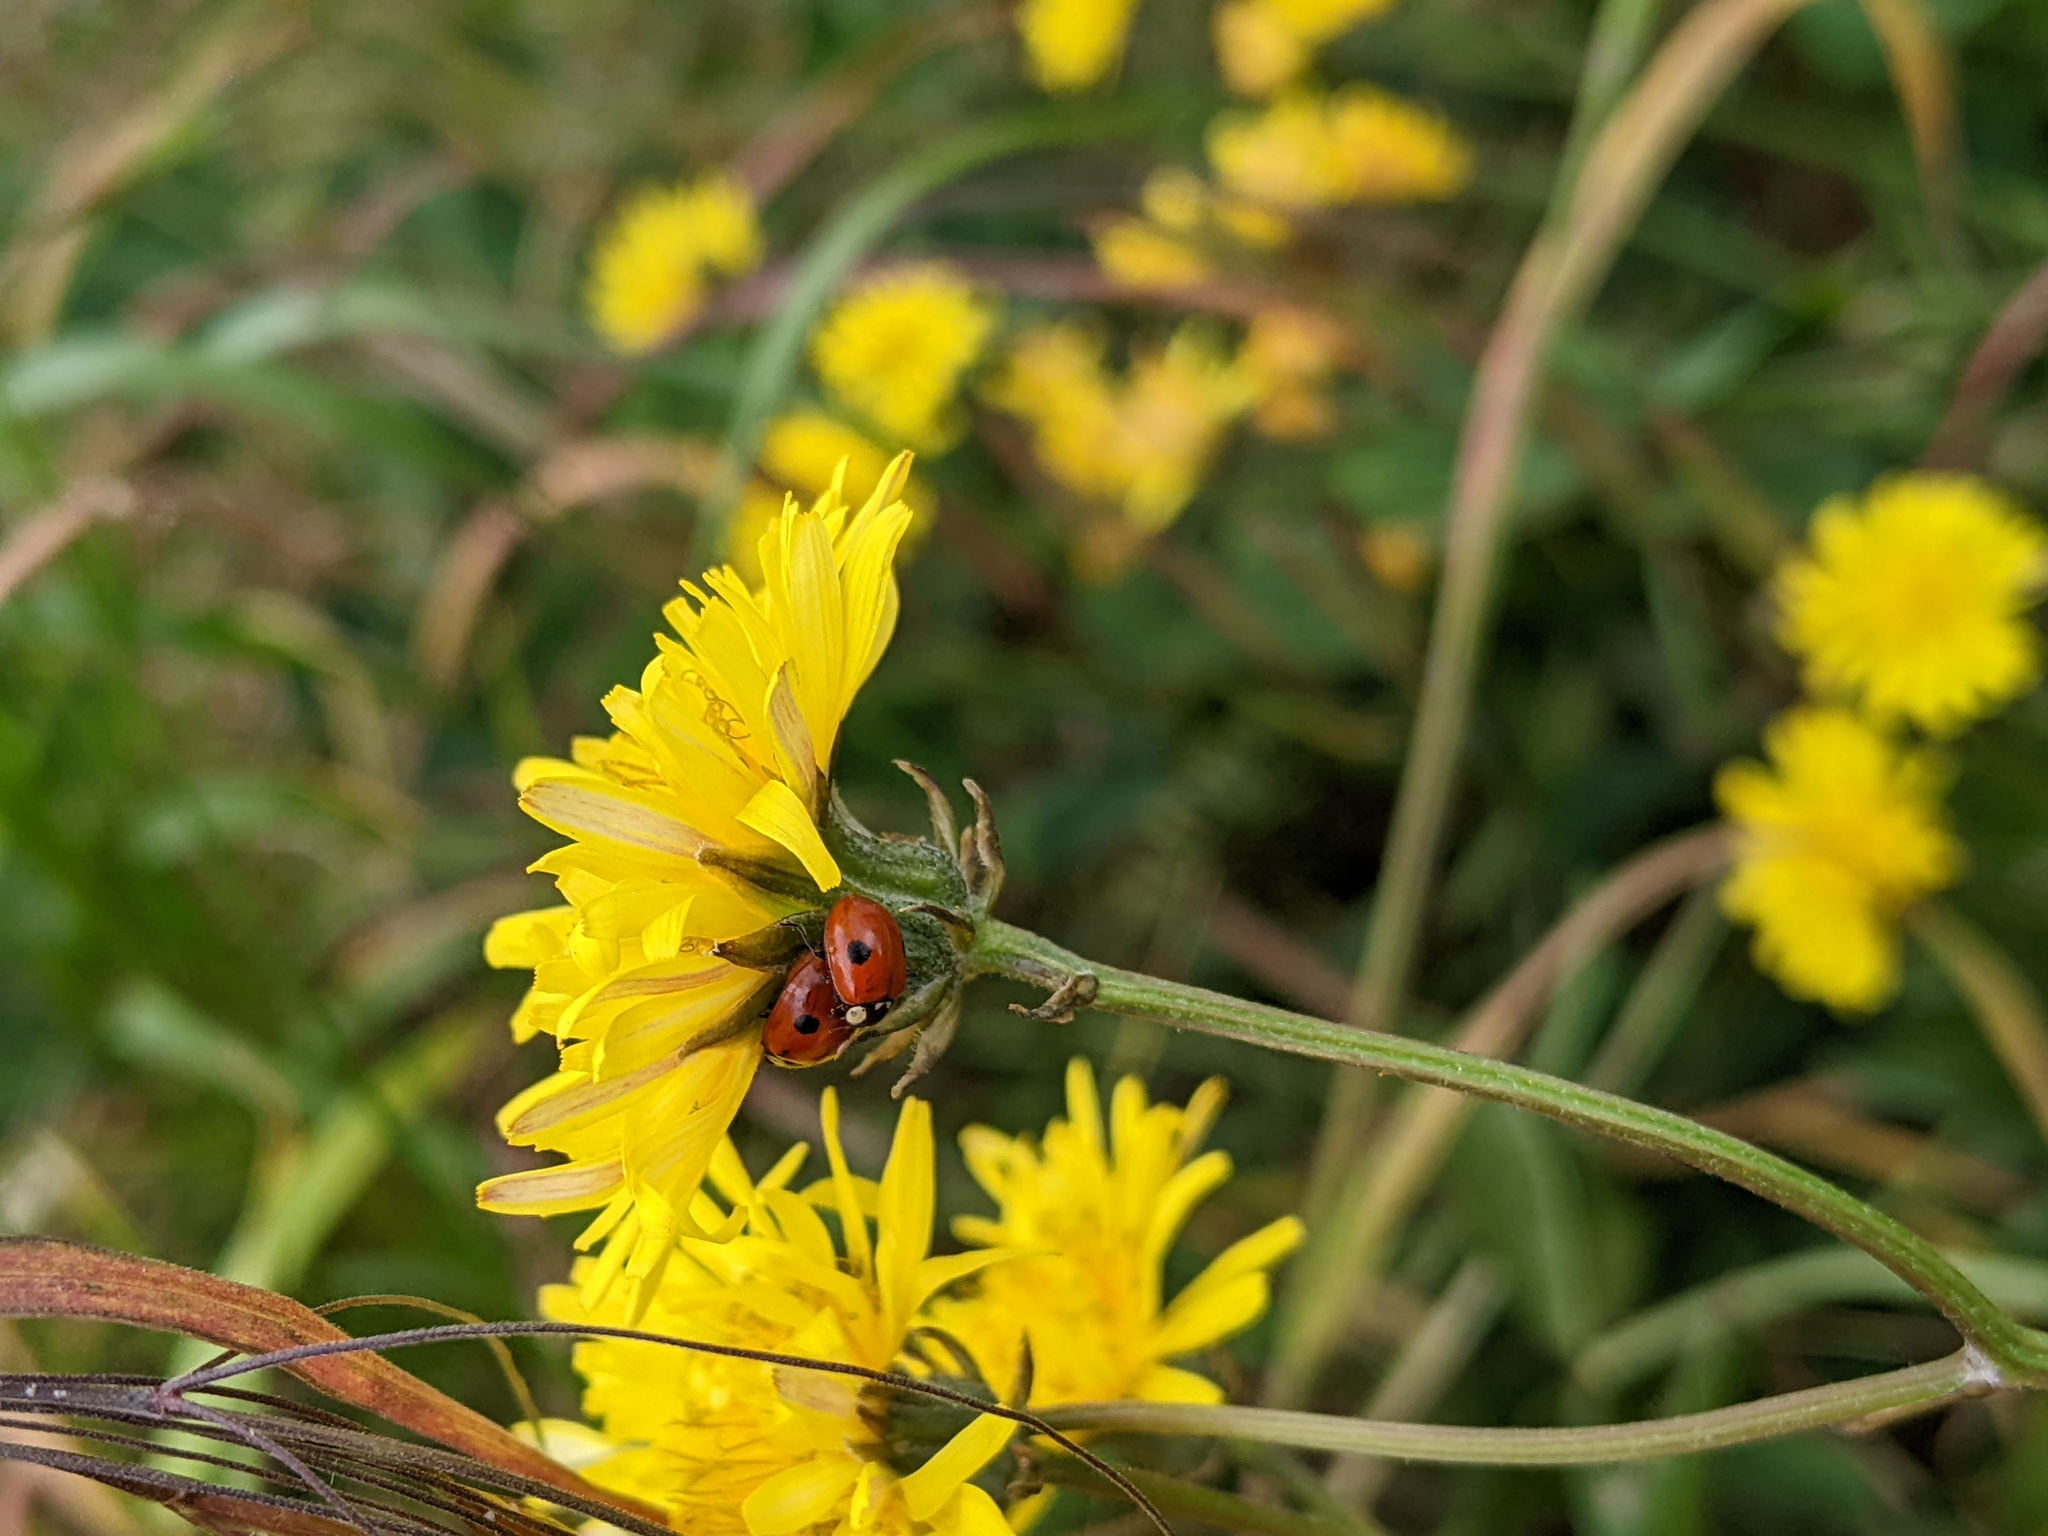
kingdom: Animalia
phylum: Arthropoda
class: Insecta
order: Coleoptera
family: Coccinellidae
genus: Adalia
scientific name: Adalia bipunctata
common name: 2-spot ladybird
